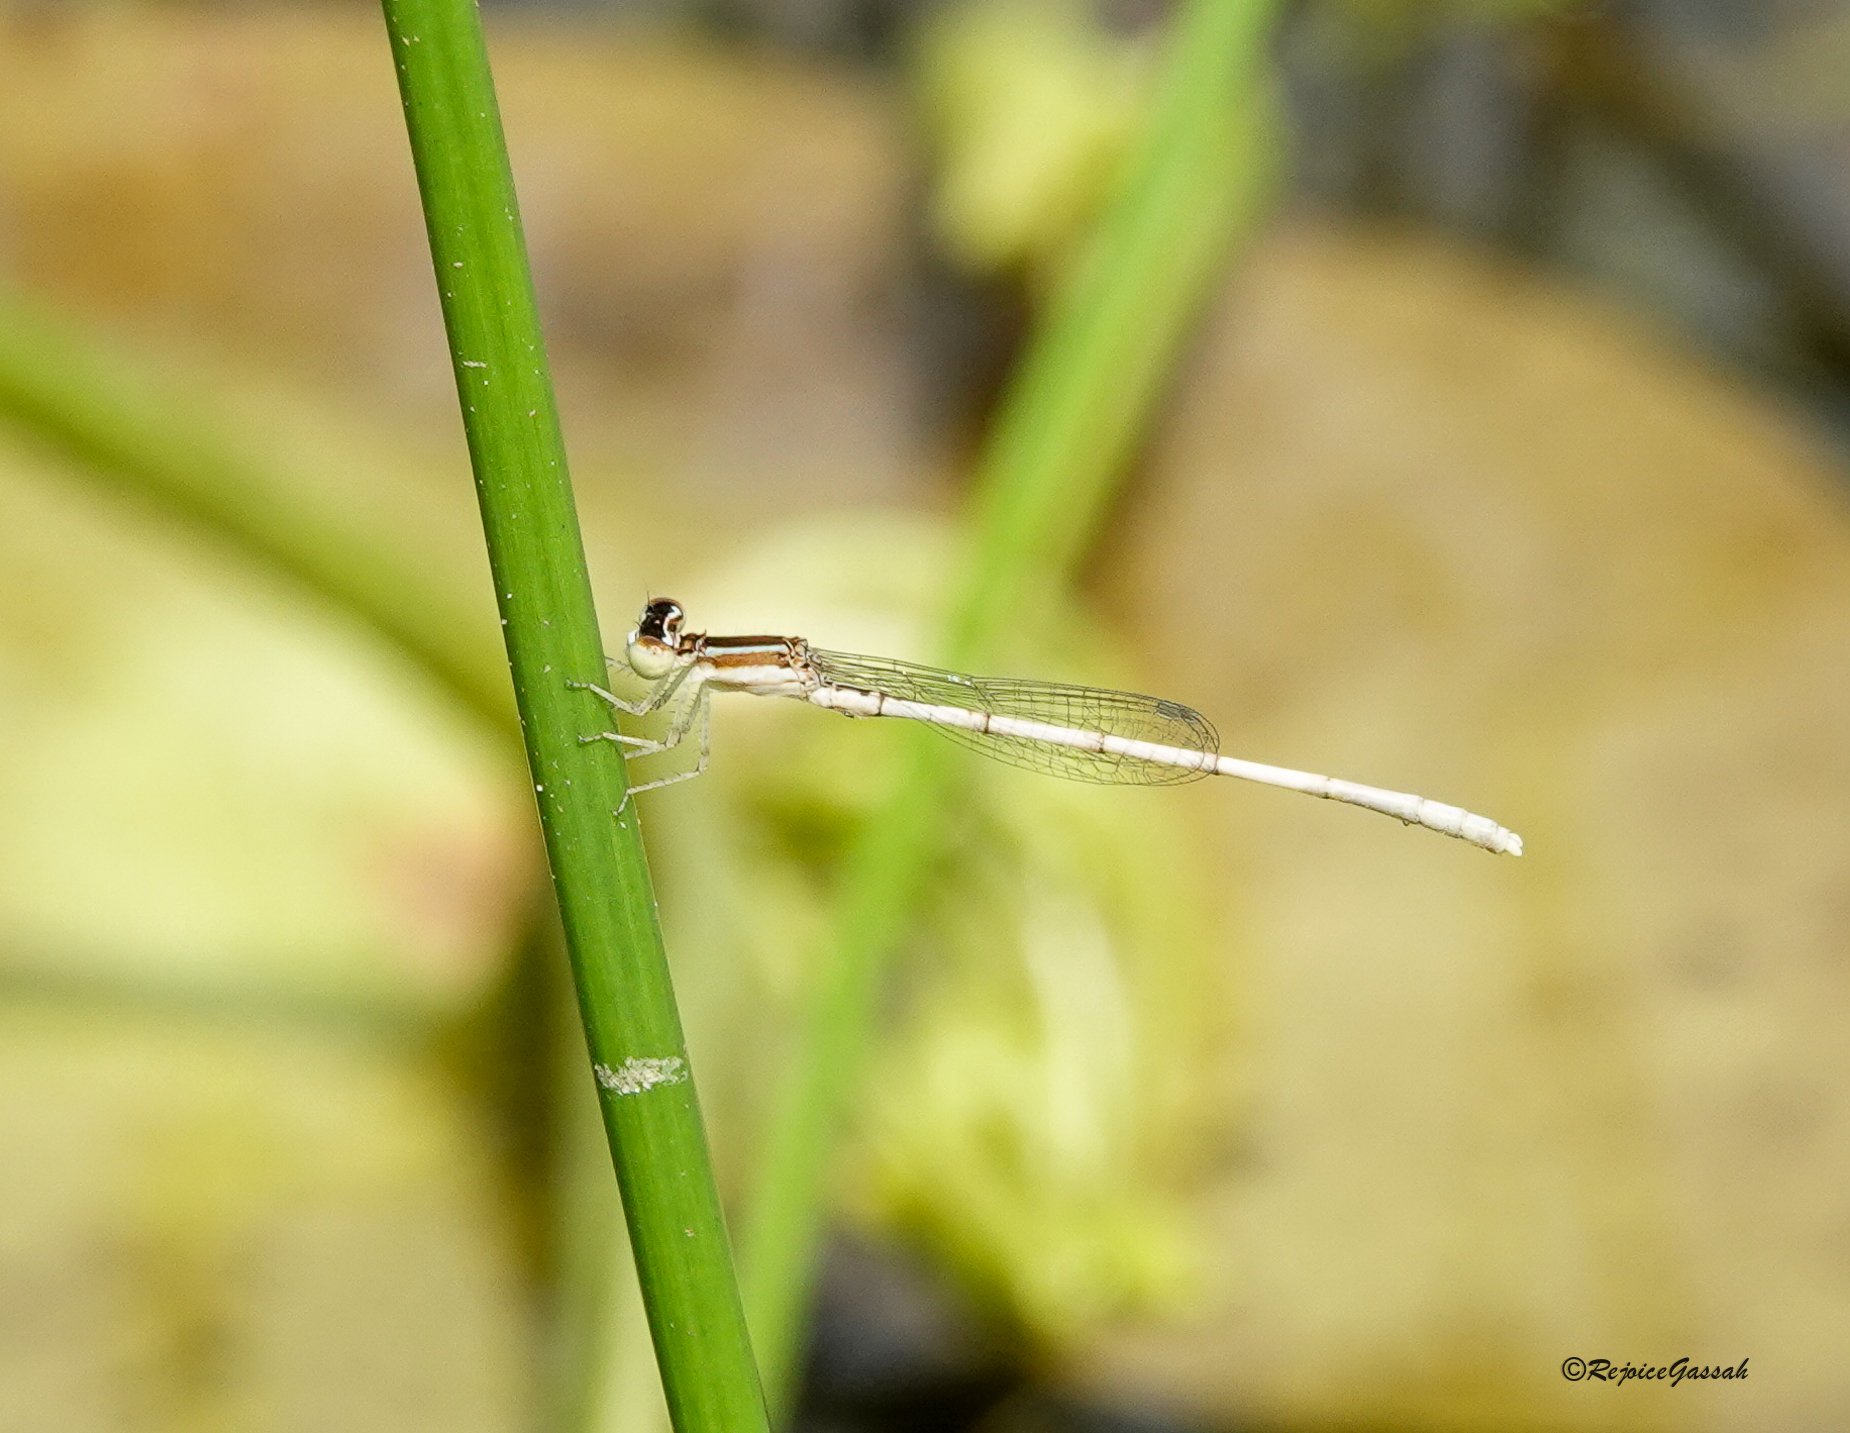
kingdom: Animalia
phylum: Arthropoda
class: Insecta
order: Odonata
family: Coenagrionidae
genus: Agriocnemis
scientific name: Agriocnemis lacteola
